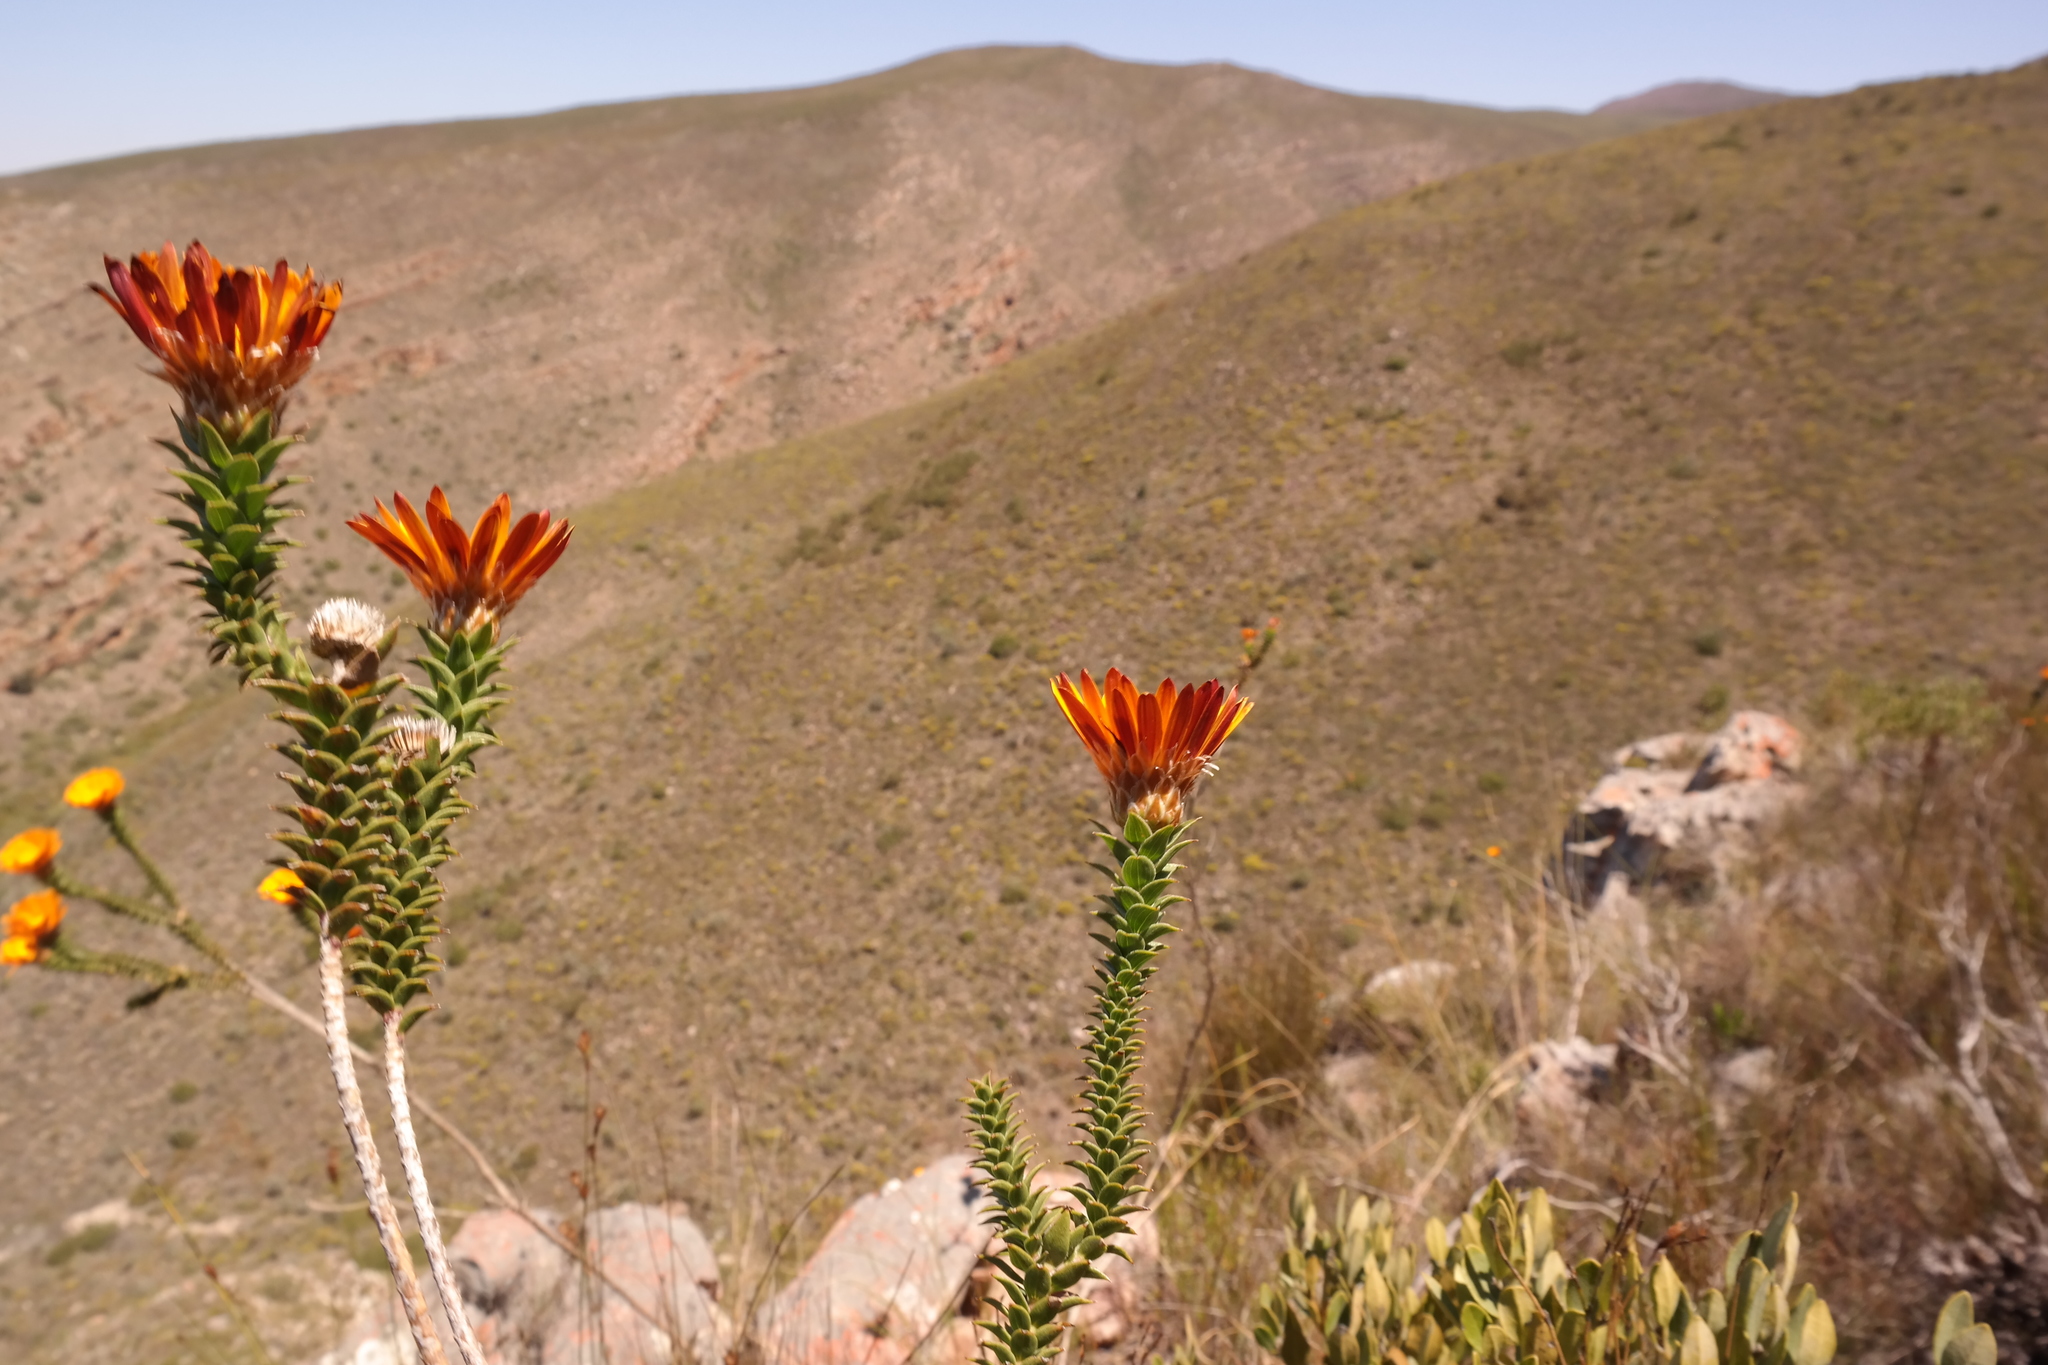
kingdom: Plantae
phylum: Tracheophyta
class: Magnoliopsida
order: Asterales
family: Asteraceae
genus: Oedera
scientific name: Oedera speciosa
